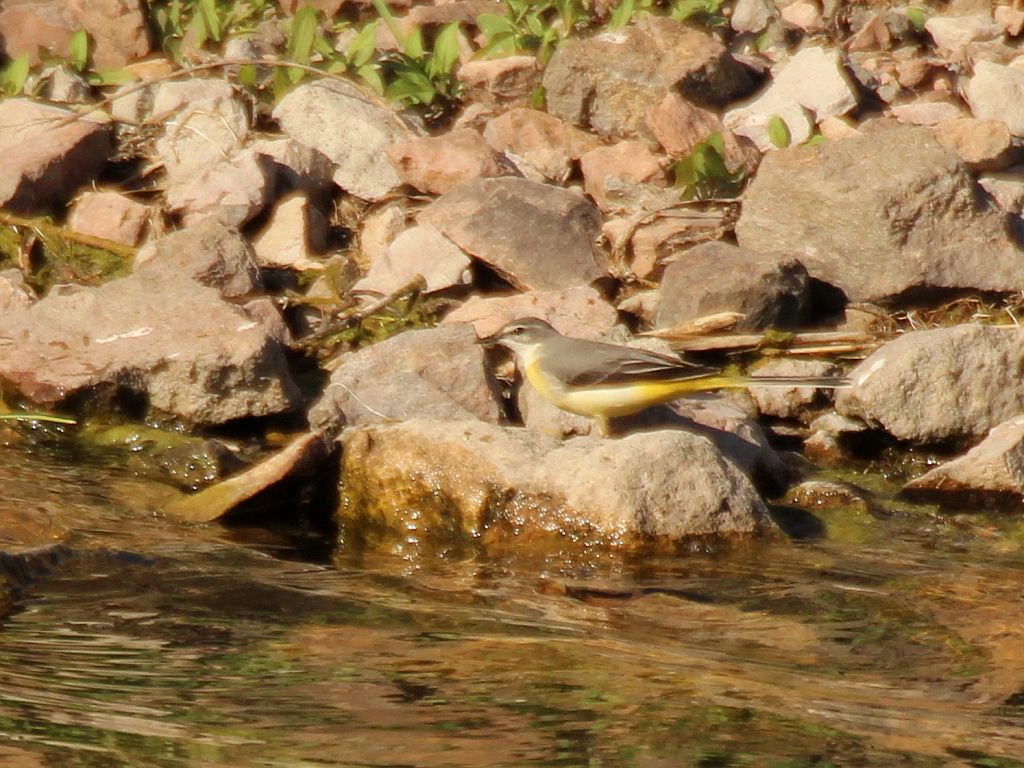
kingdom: Animalia
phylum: Chordata
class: Aves
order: Passeriformes
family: Motacillidae
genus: Motacilla
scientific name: Motacilla cinerea
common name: Grey wagtail
